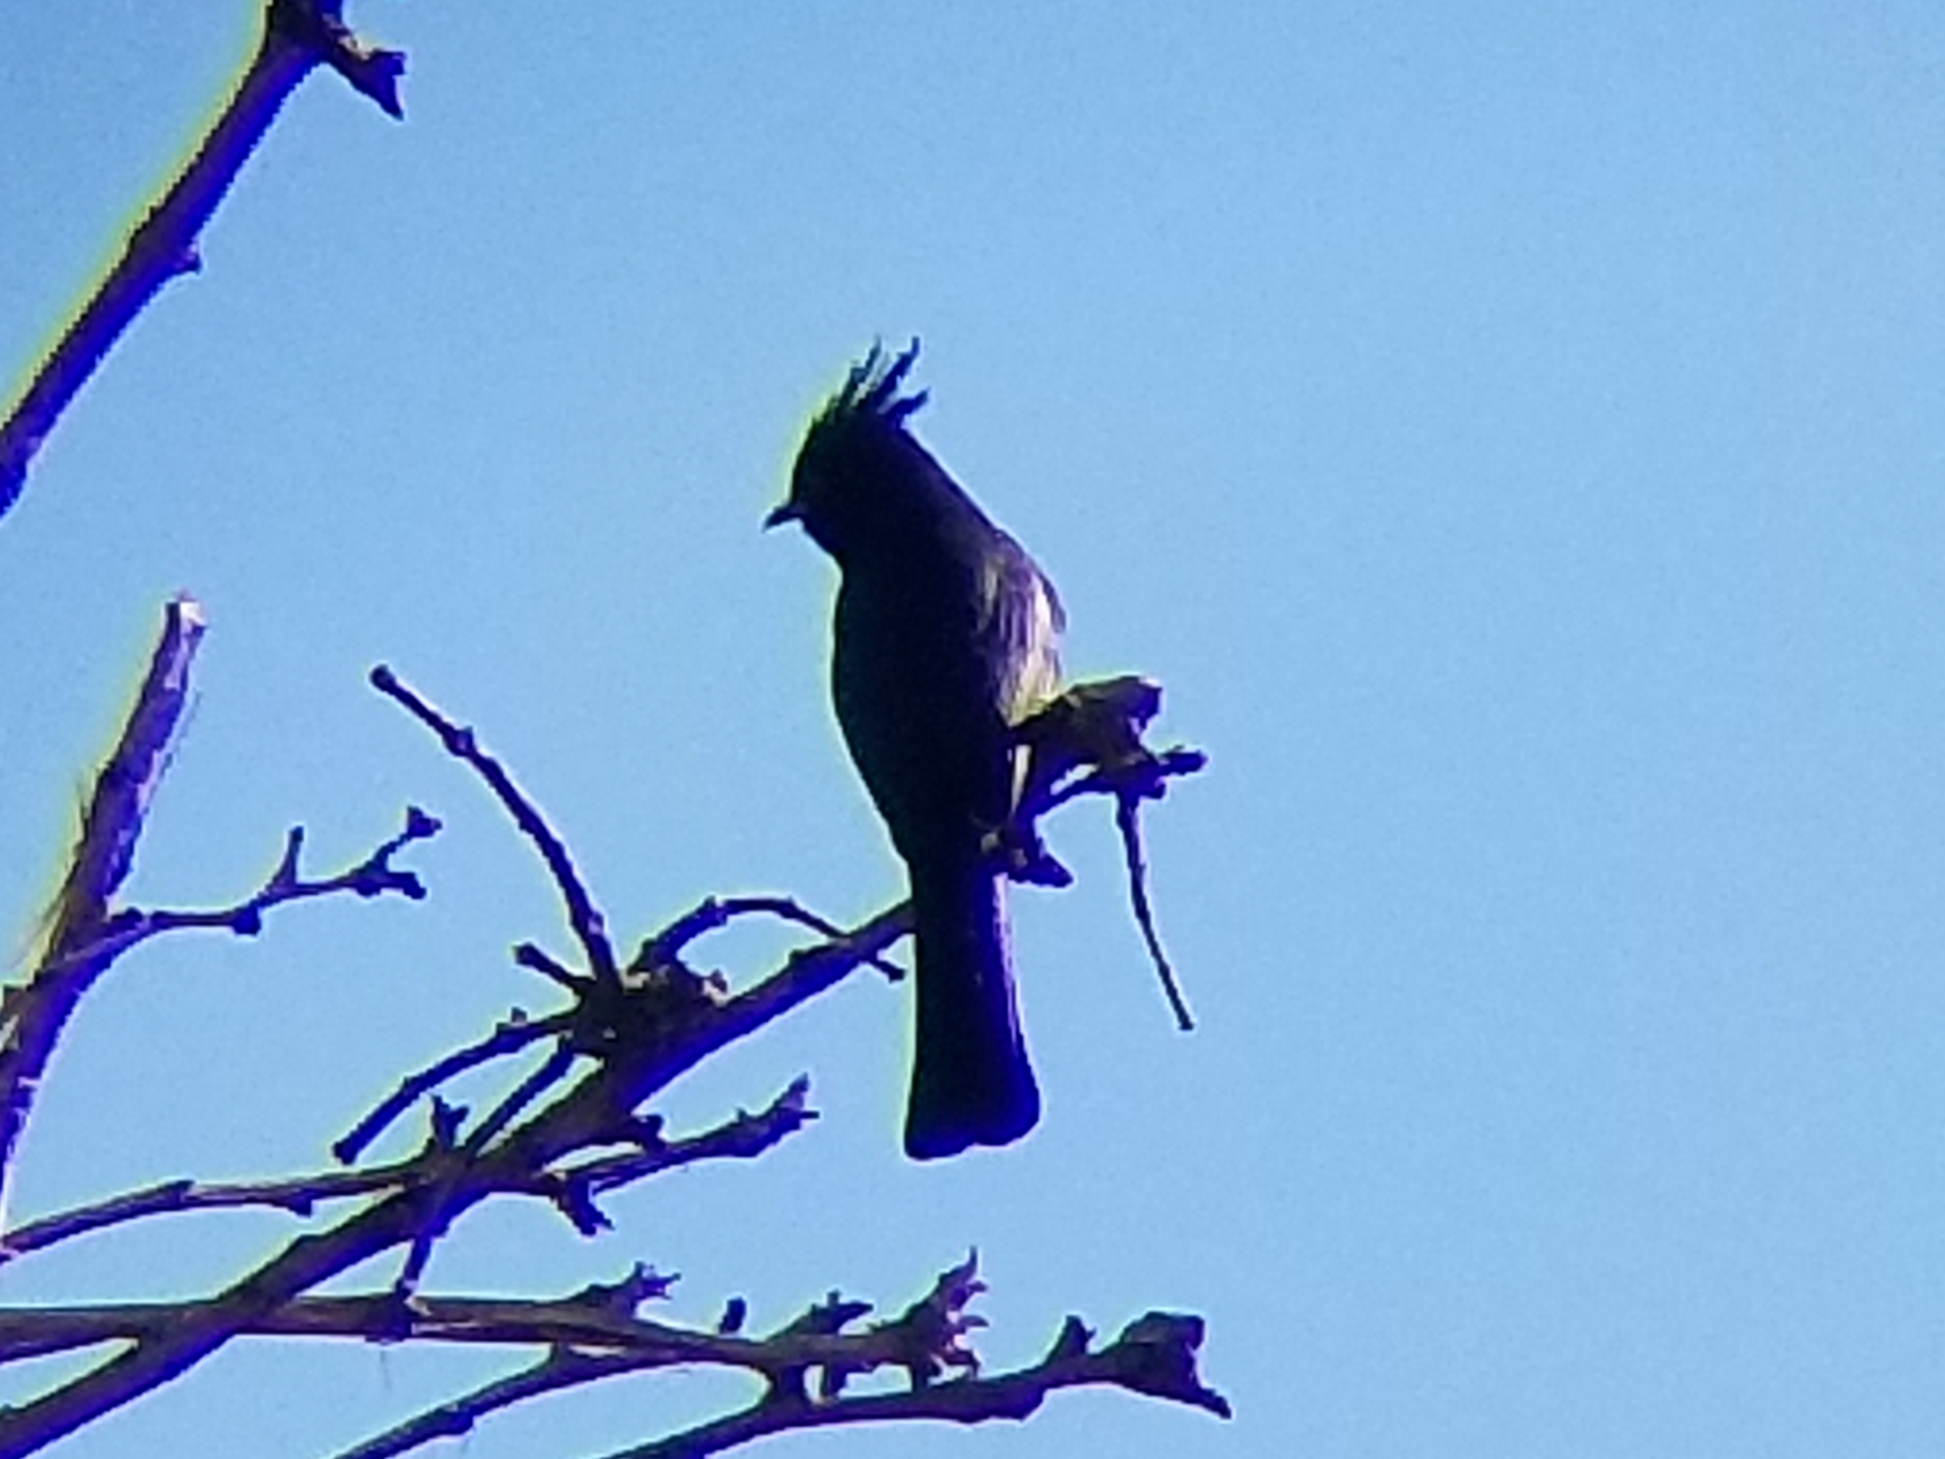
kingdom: Animalia
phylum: Chordata
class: Aves
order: Passeriformes
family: Ptilogonatidae
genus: Phainopepla
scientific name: Phainopepla nitens
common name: Phainopepla
